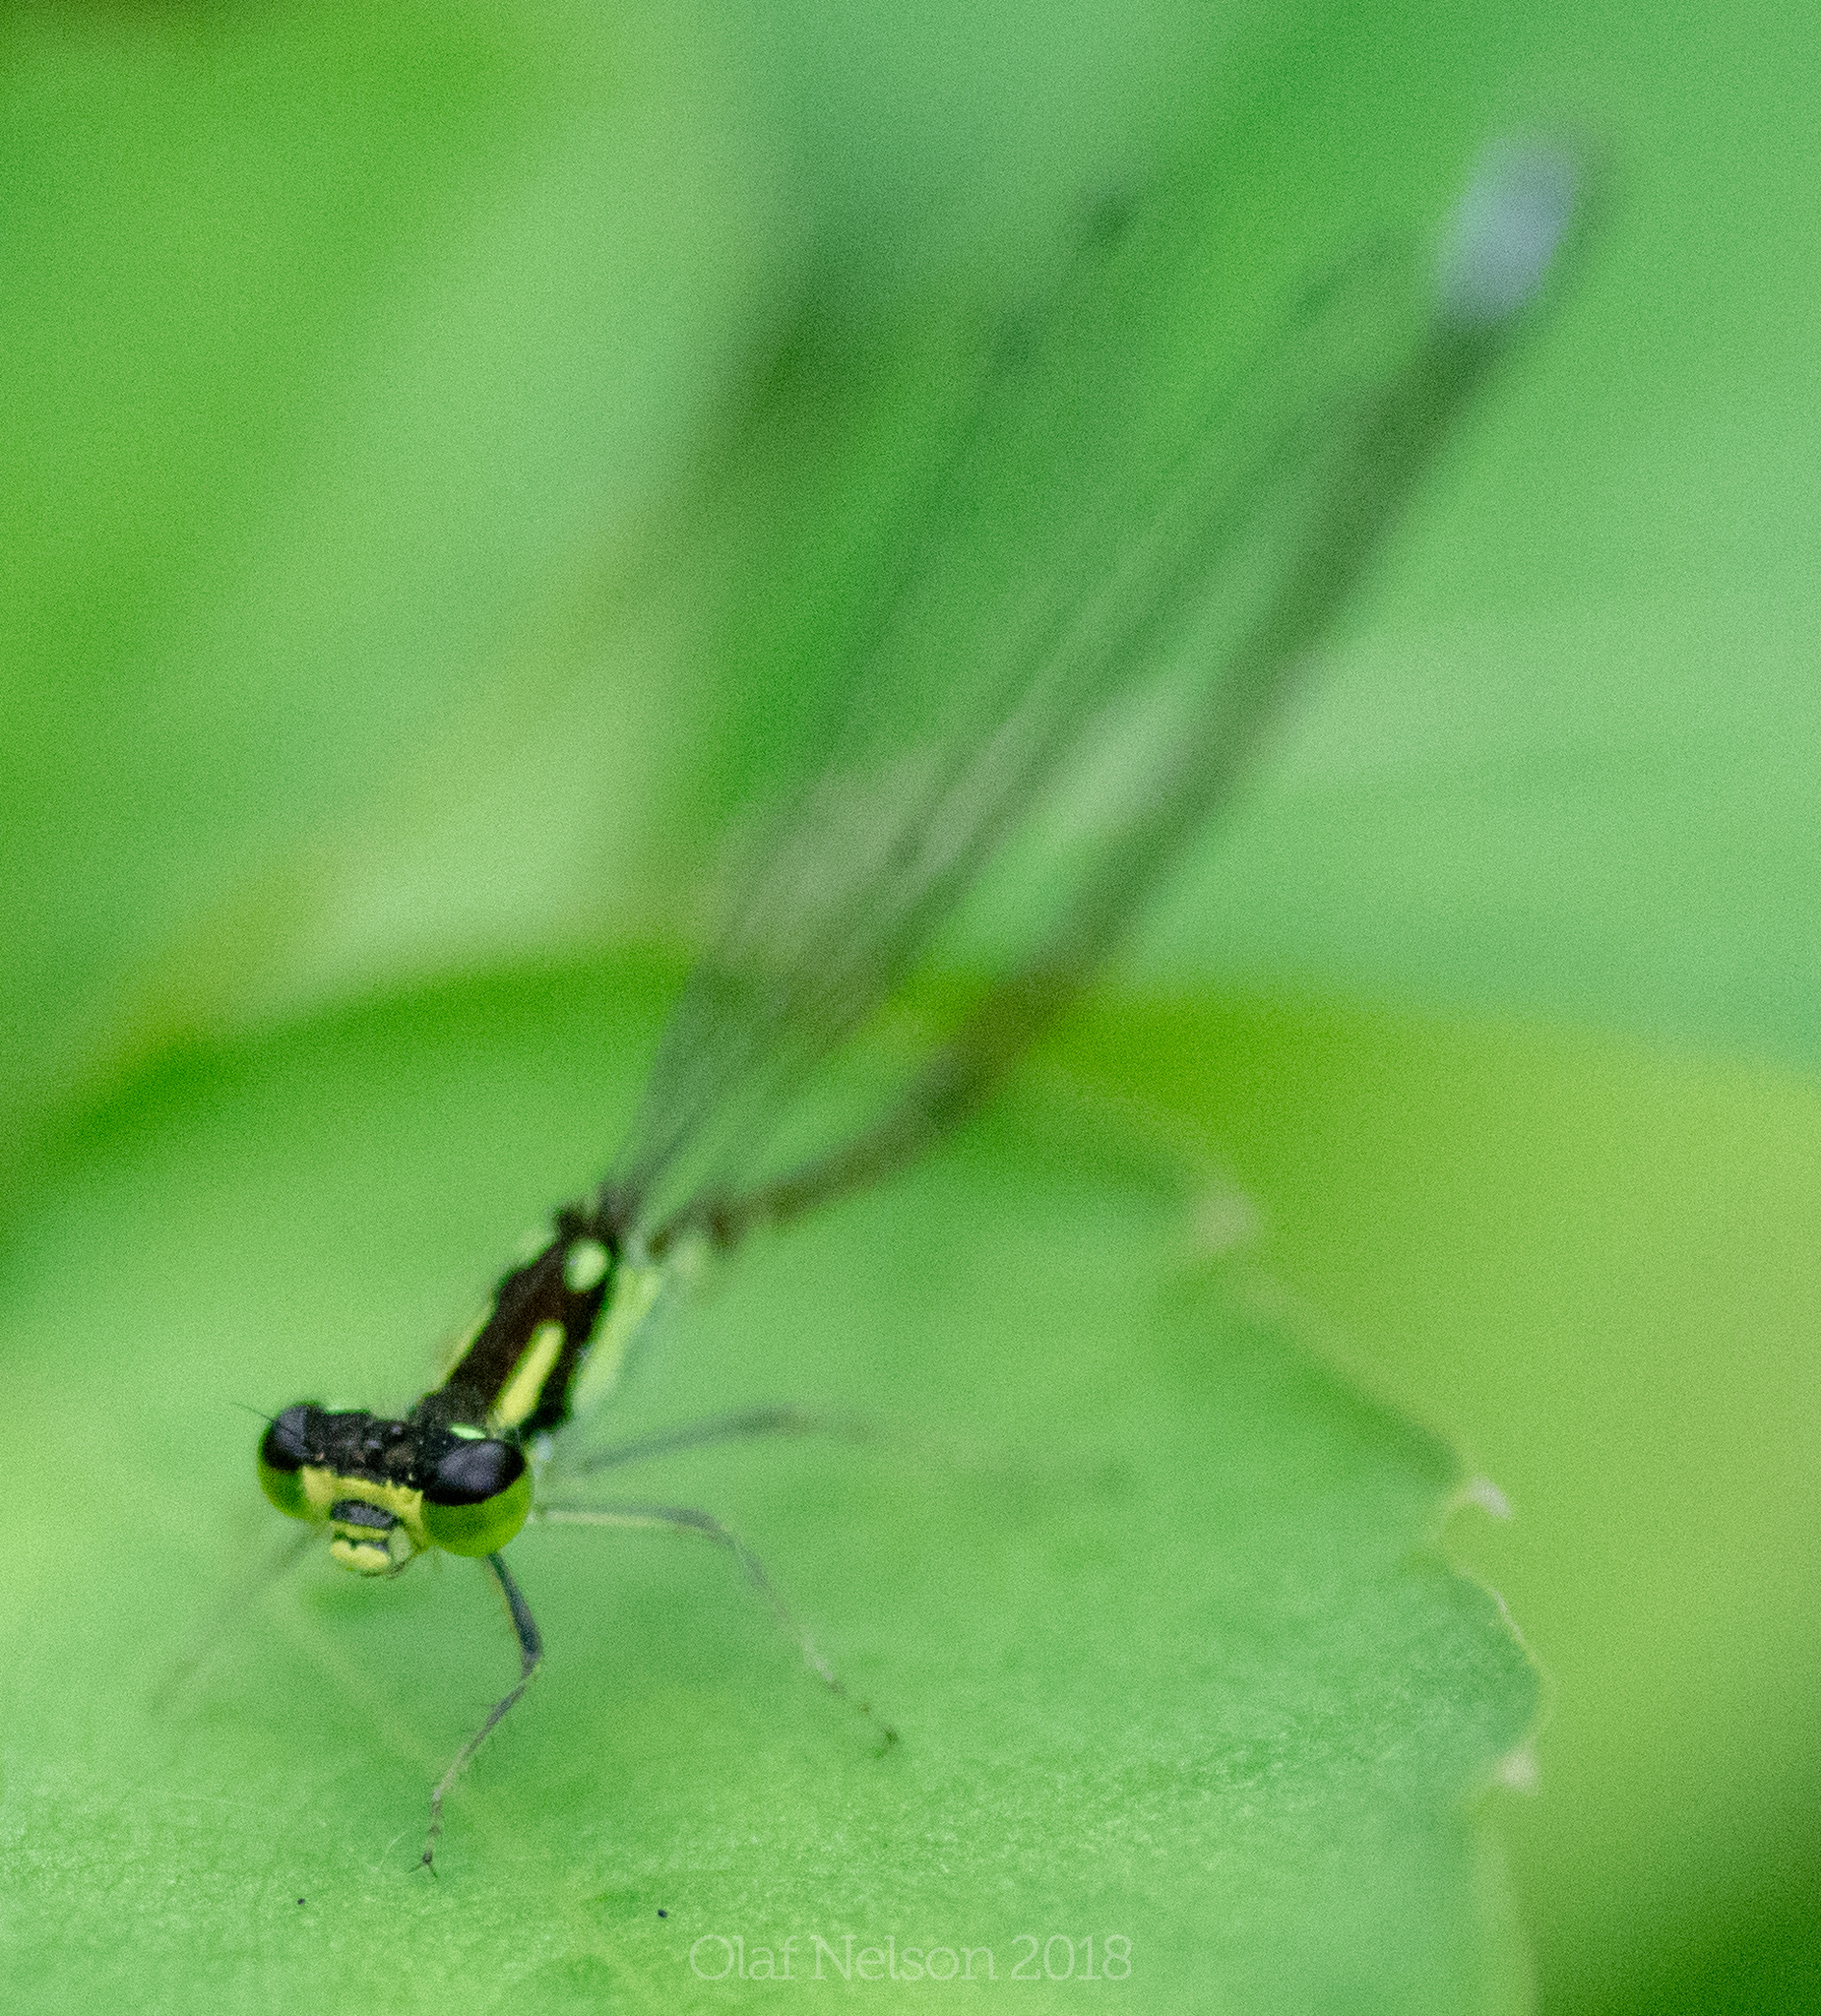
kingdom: Animalia
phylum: Arthropoda
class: Insecta
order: Odonata
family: Coenagrionidae
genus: Ischnura
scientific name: Ischnura verticalis
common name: Eastern forktail
